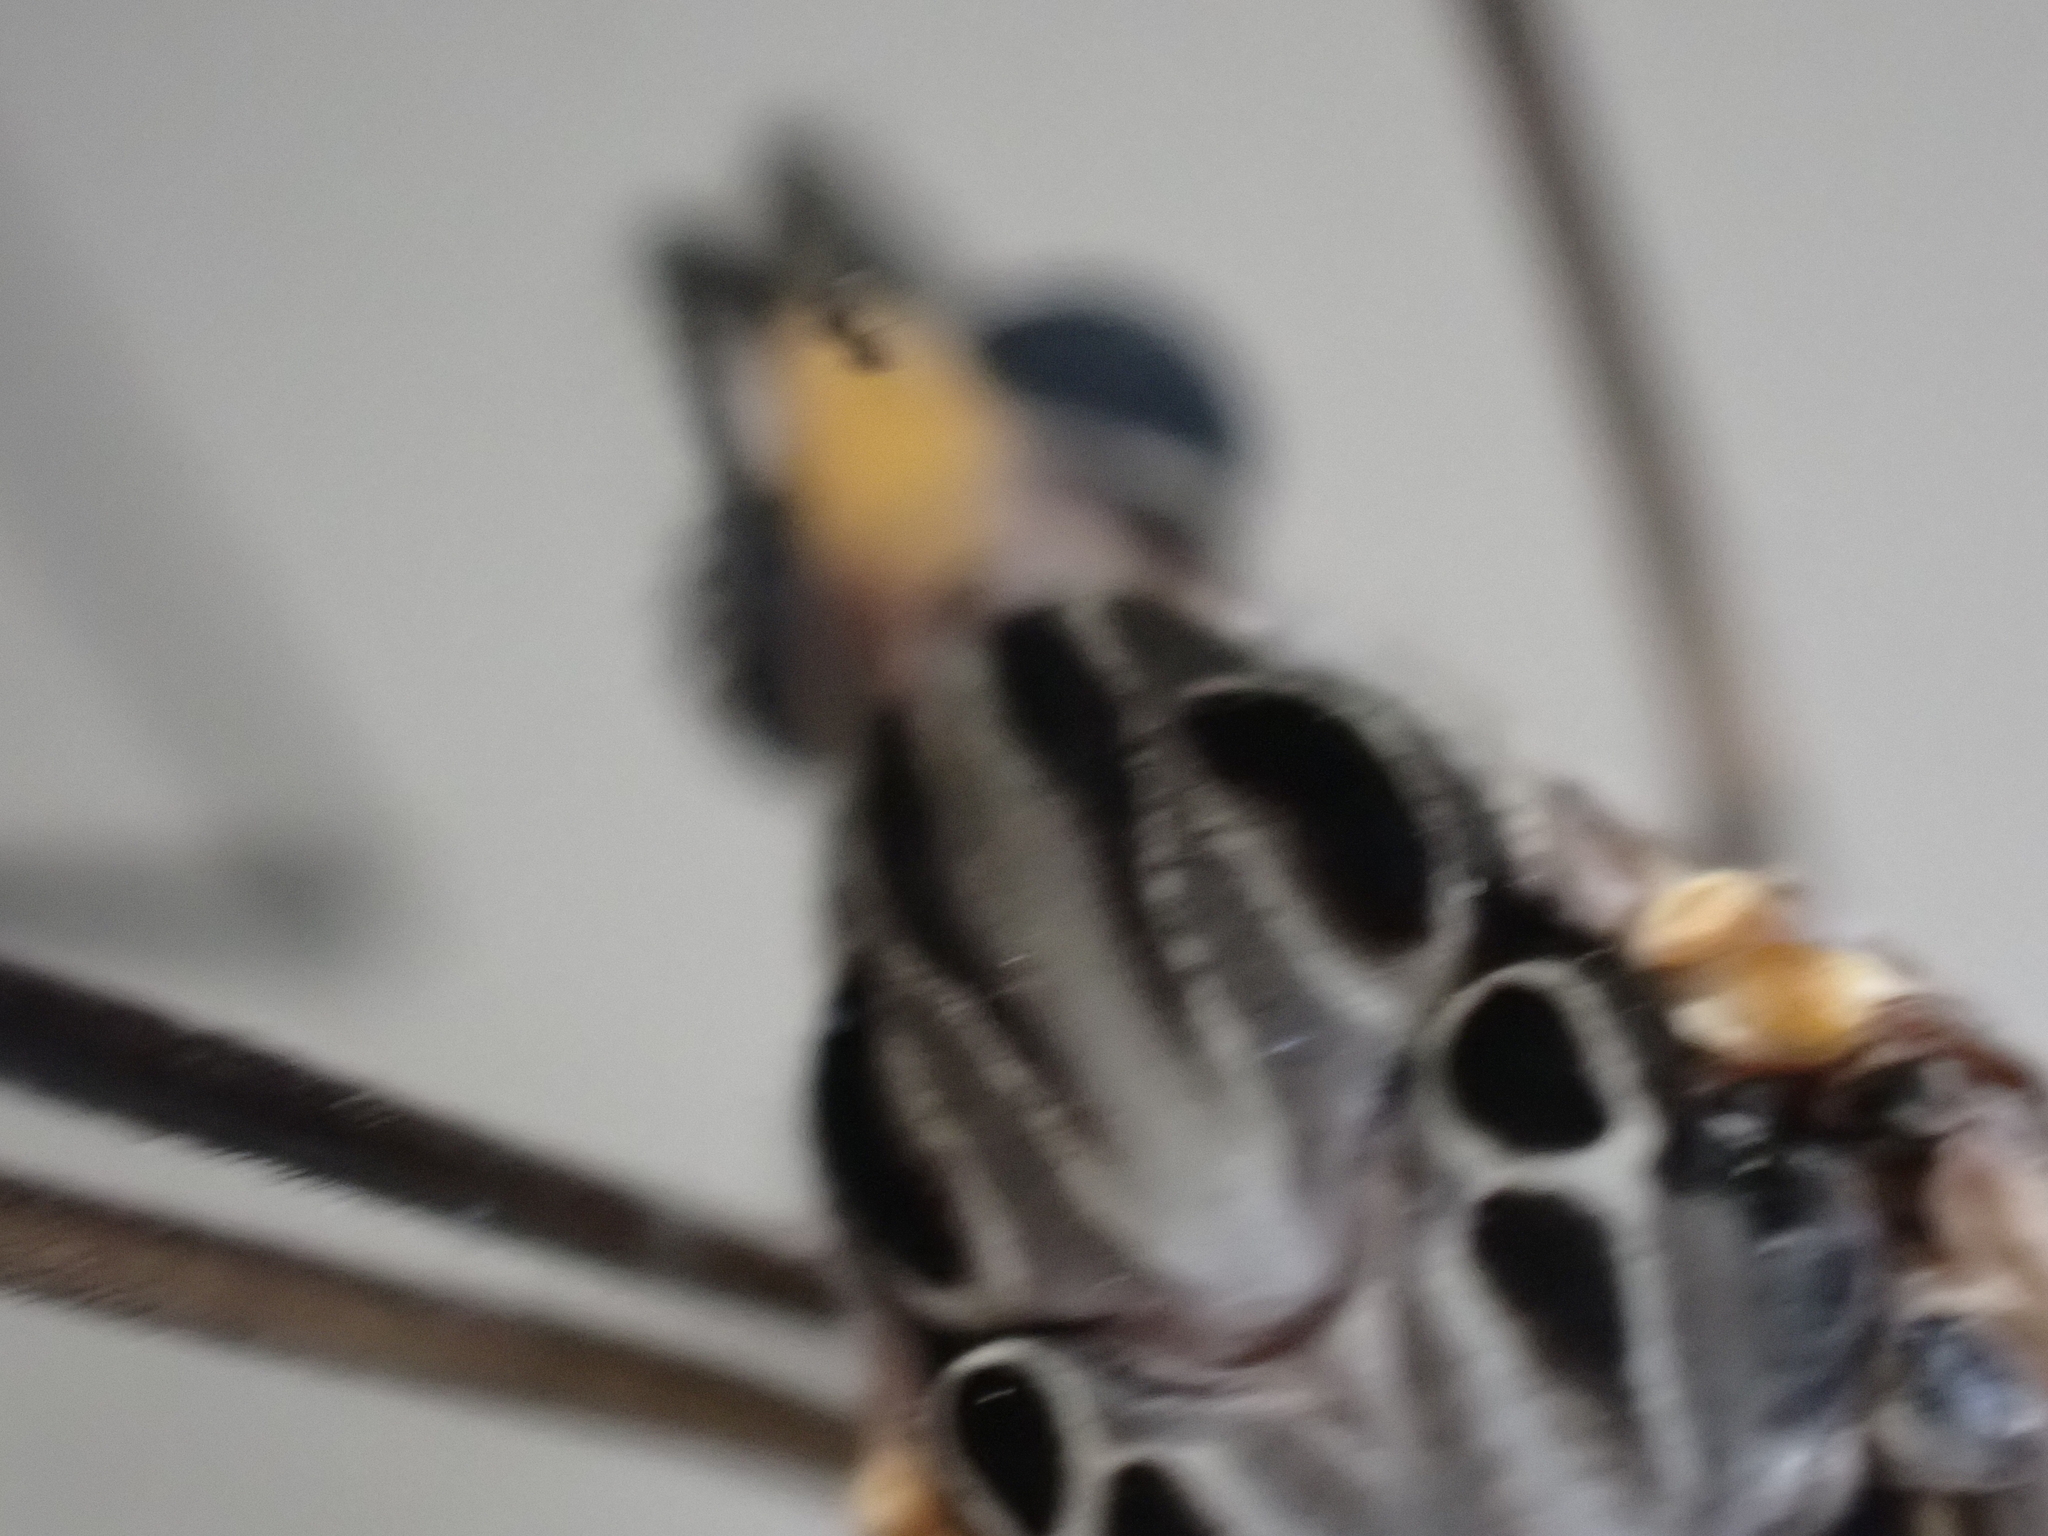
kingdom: Animalia
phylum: Arthropoda
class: Insecta
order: Diptera
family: Tipulidae
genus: Tipula
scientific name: Tipula abdominalis
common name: Giant crane fly
